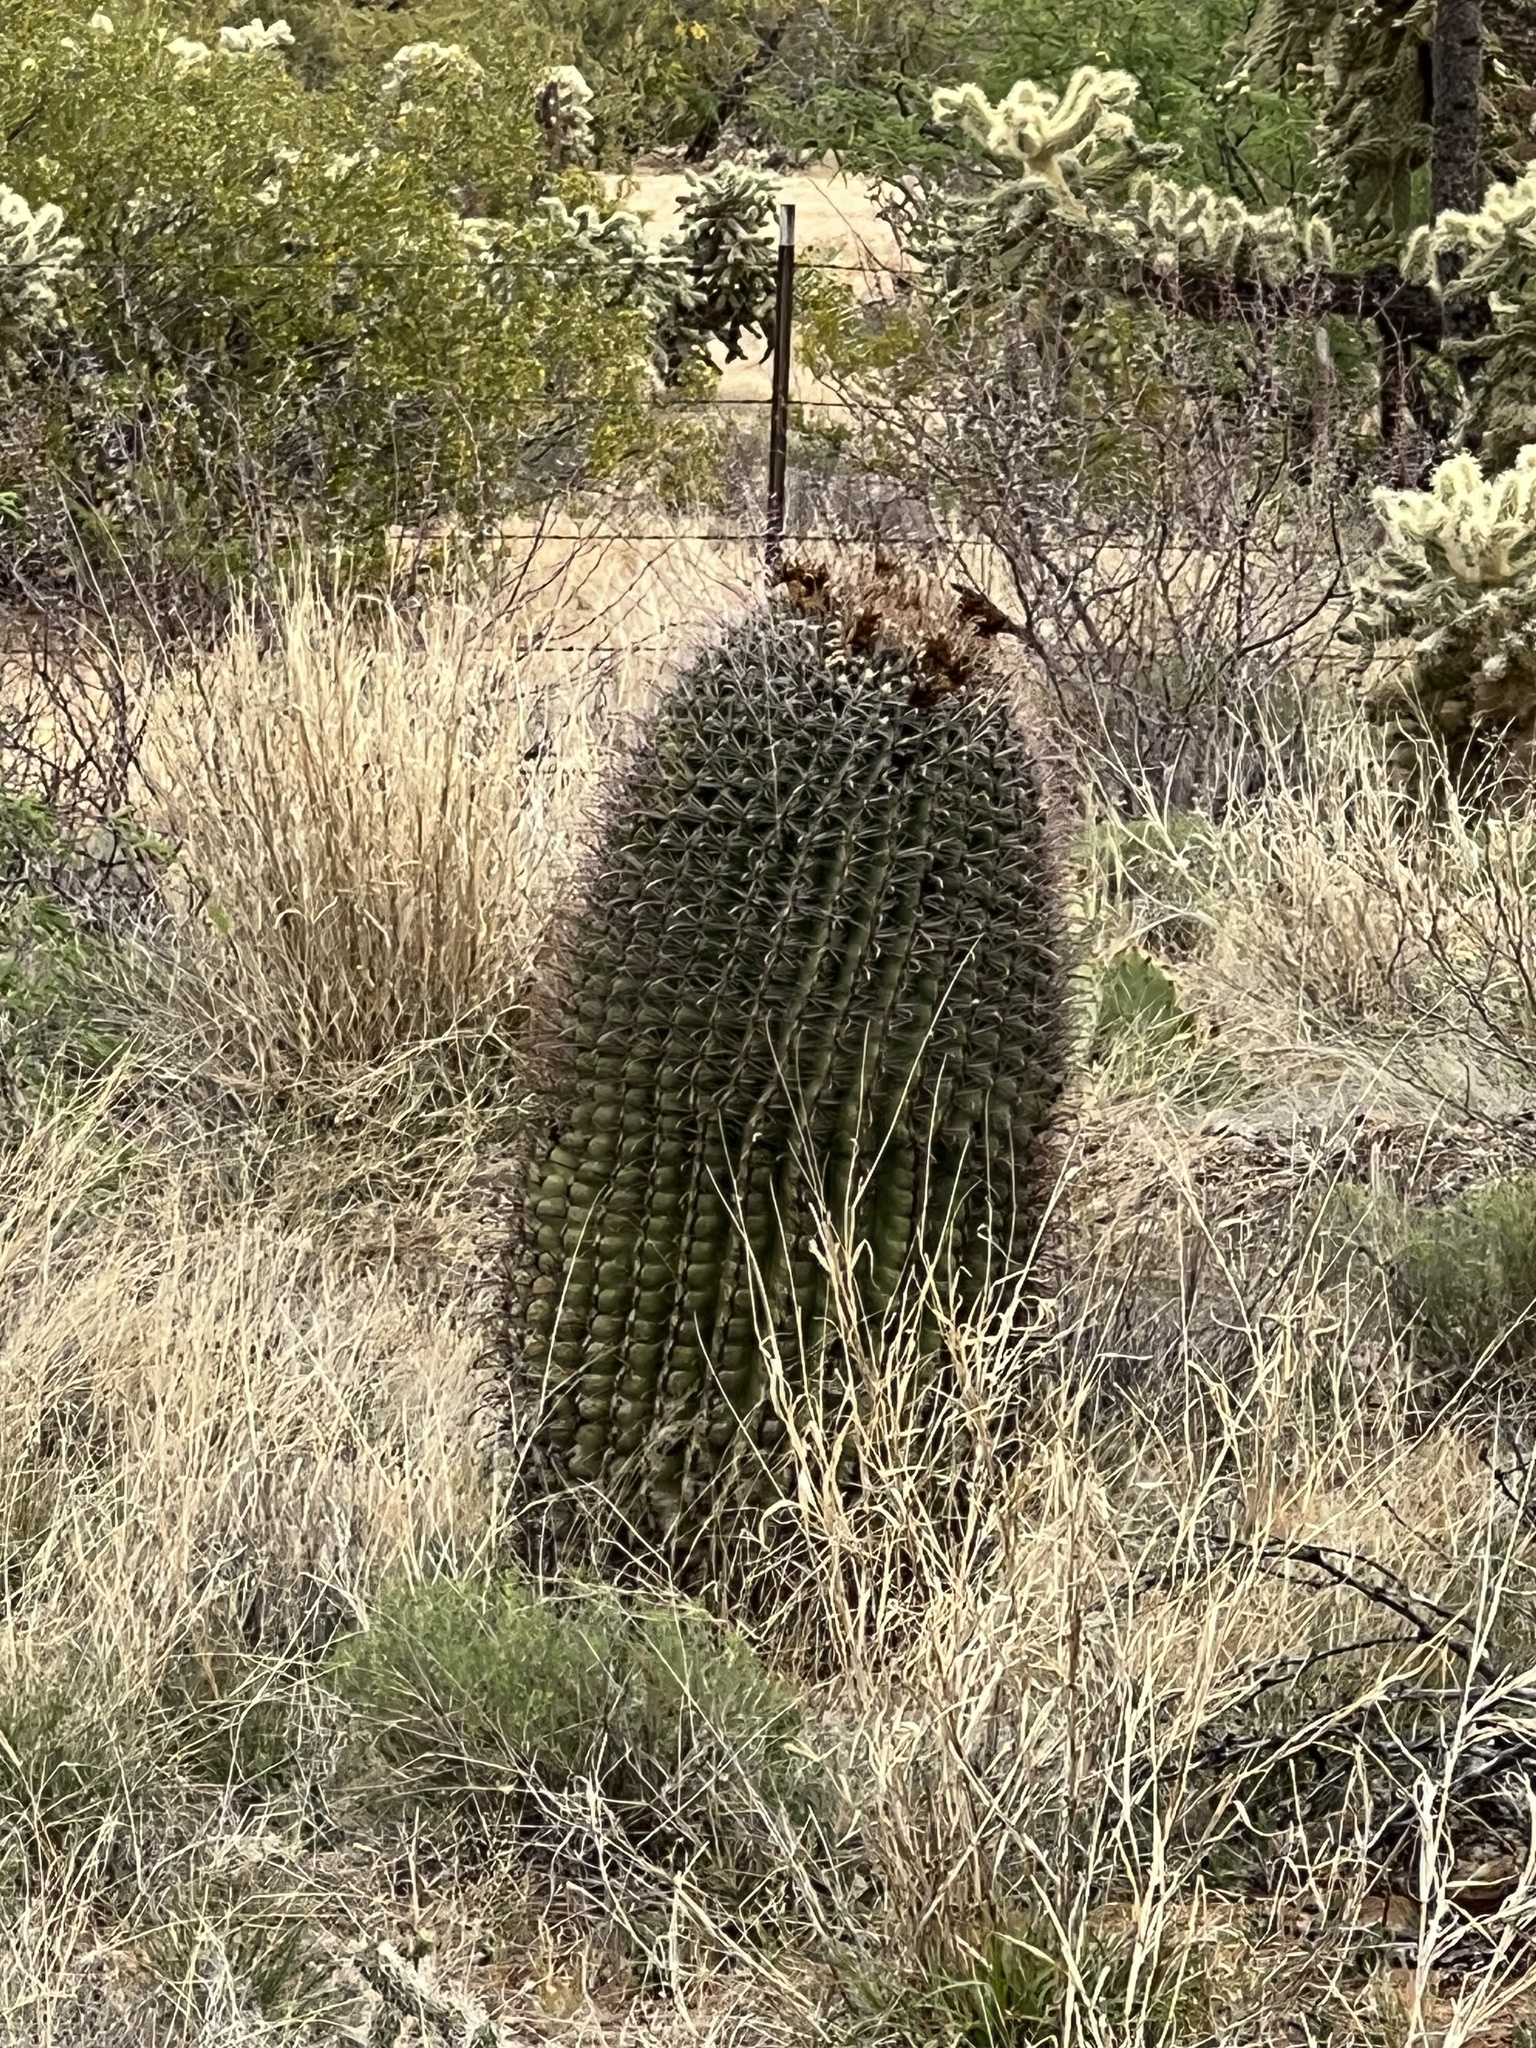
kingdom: Plantae
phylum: Tracheophyta
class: Magnoliopsida
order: Caryophyllales
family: Cactaceae
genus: Ferocactus
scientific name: Ferocactus wislizeni
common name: Candy barrel cactus
